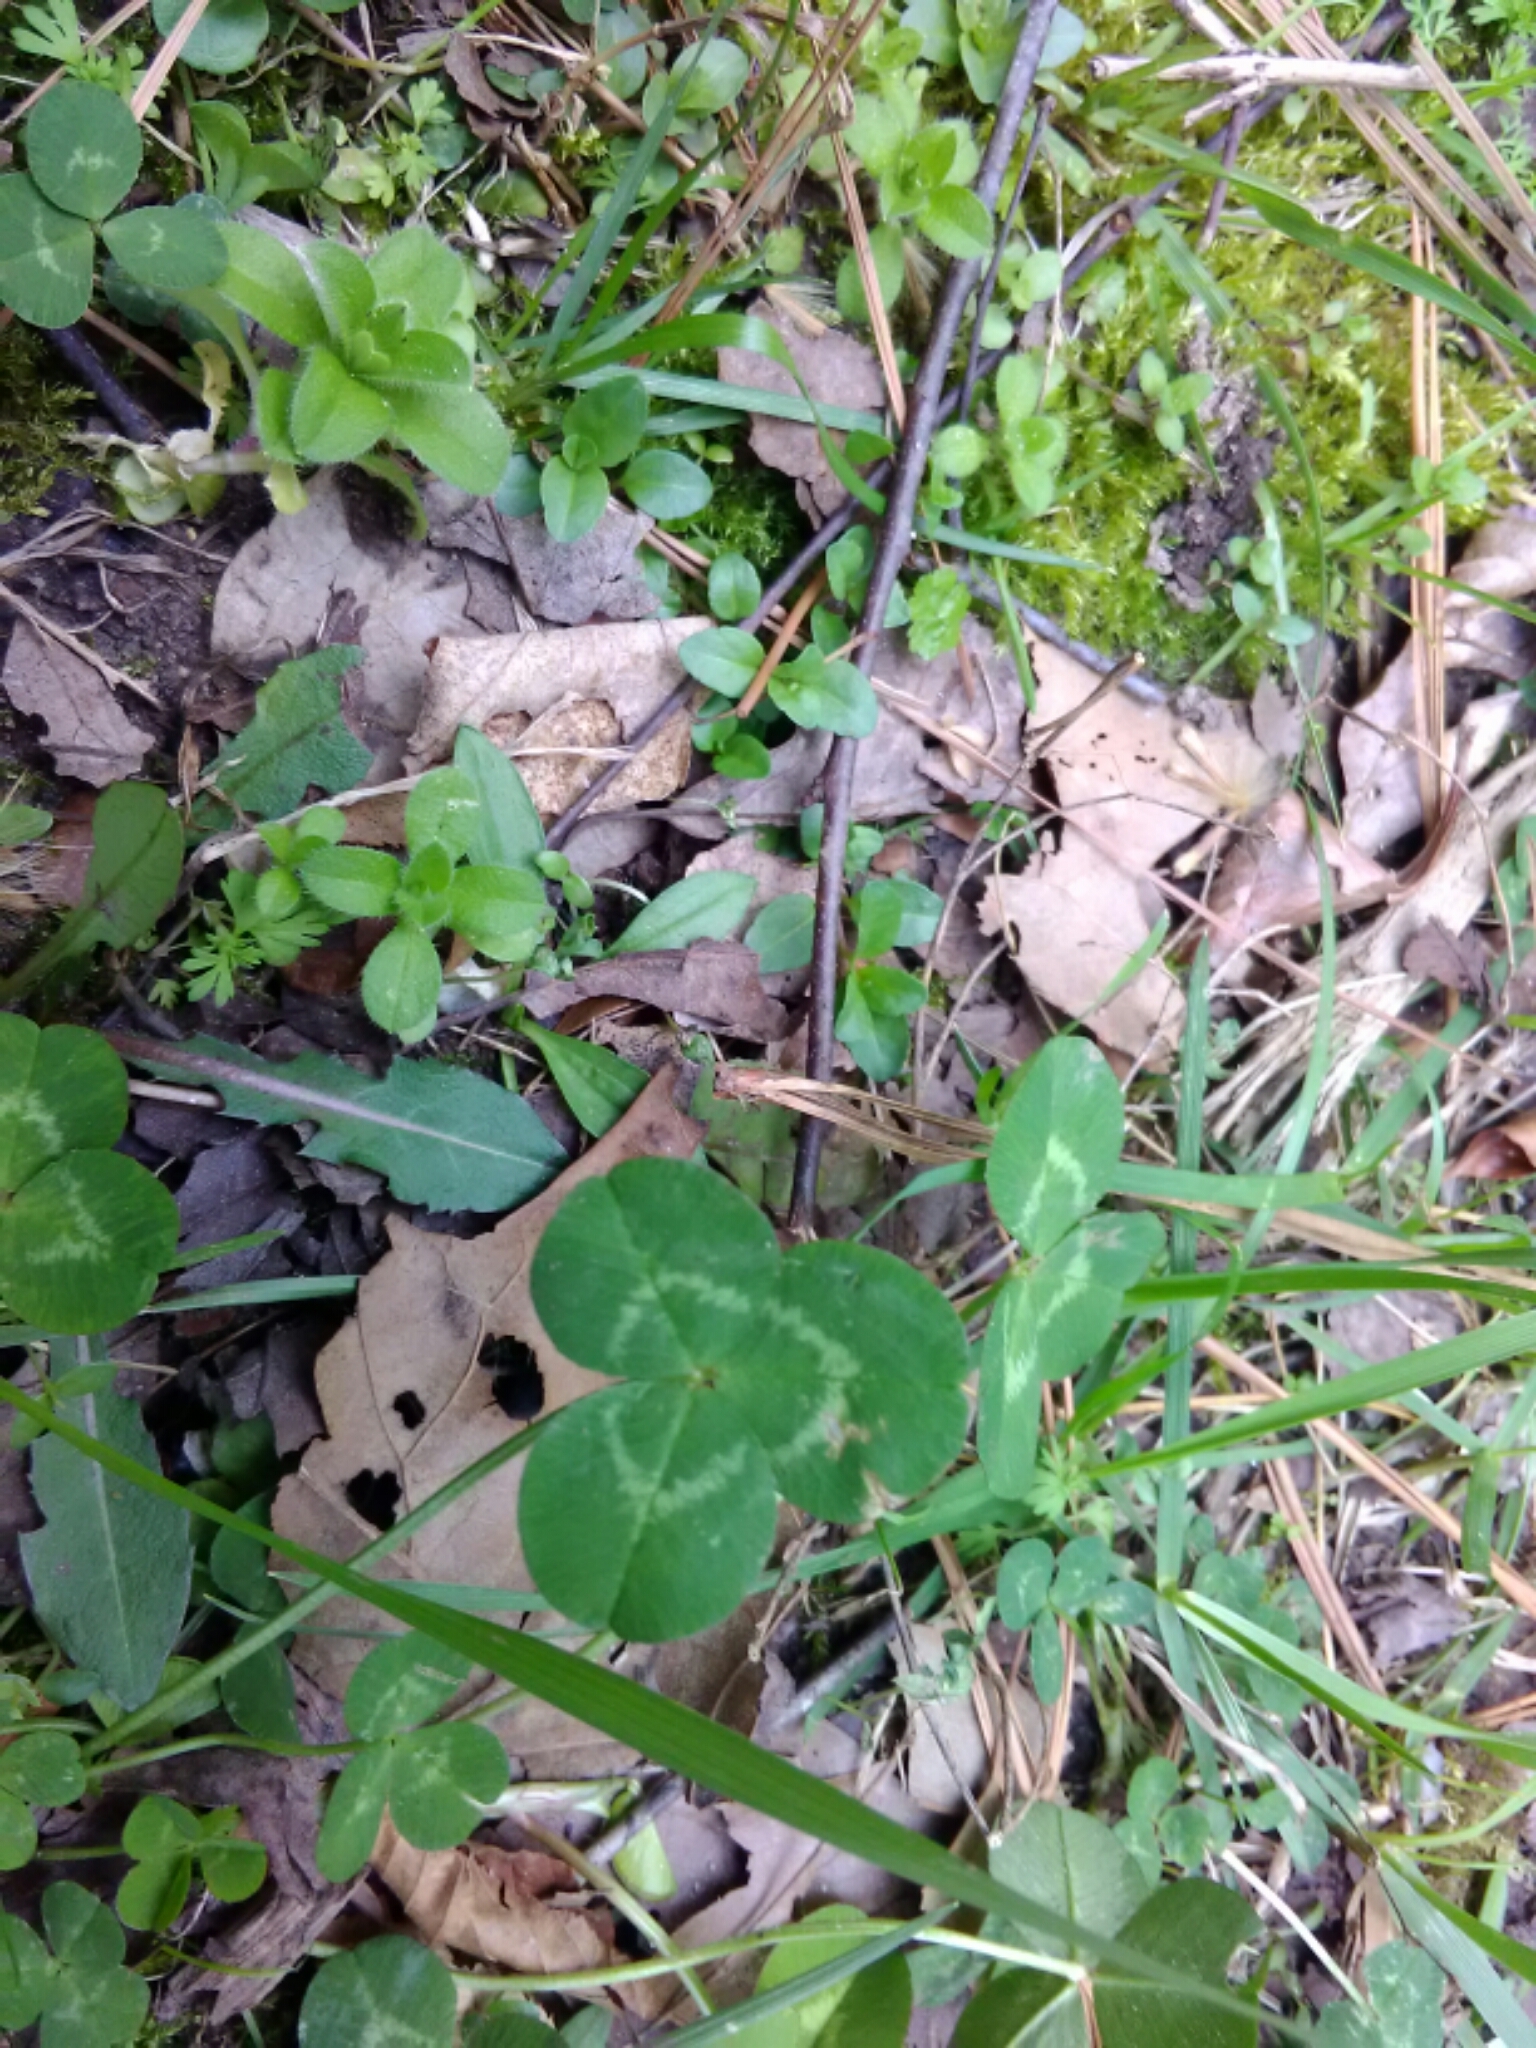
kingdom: Plantae
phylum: Tracheophyta
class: Magnoliopsida
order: Fabales
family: Fabaceae
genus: Trifolium
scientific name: Trifolium repens
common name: White clover
